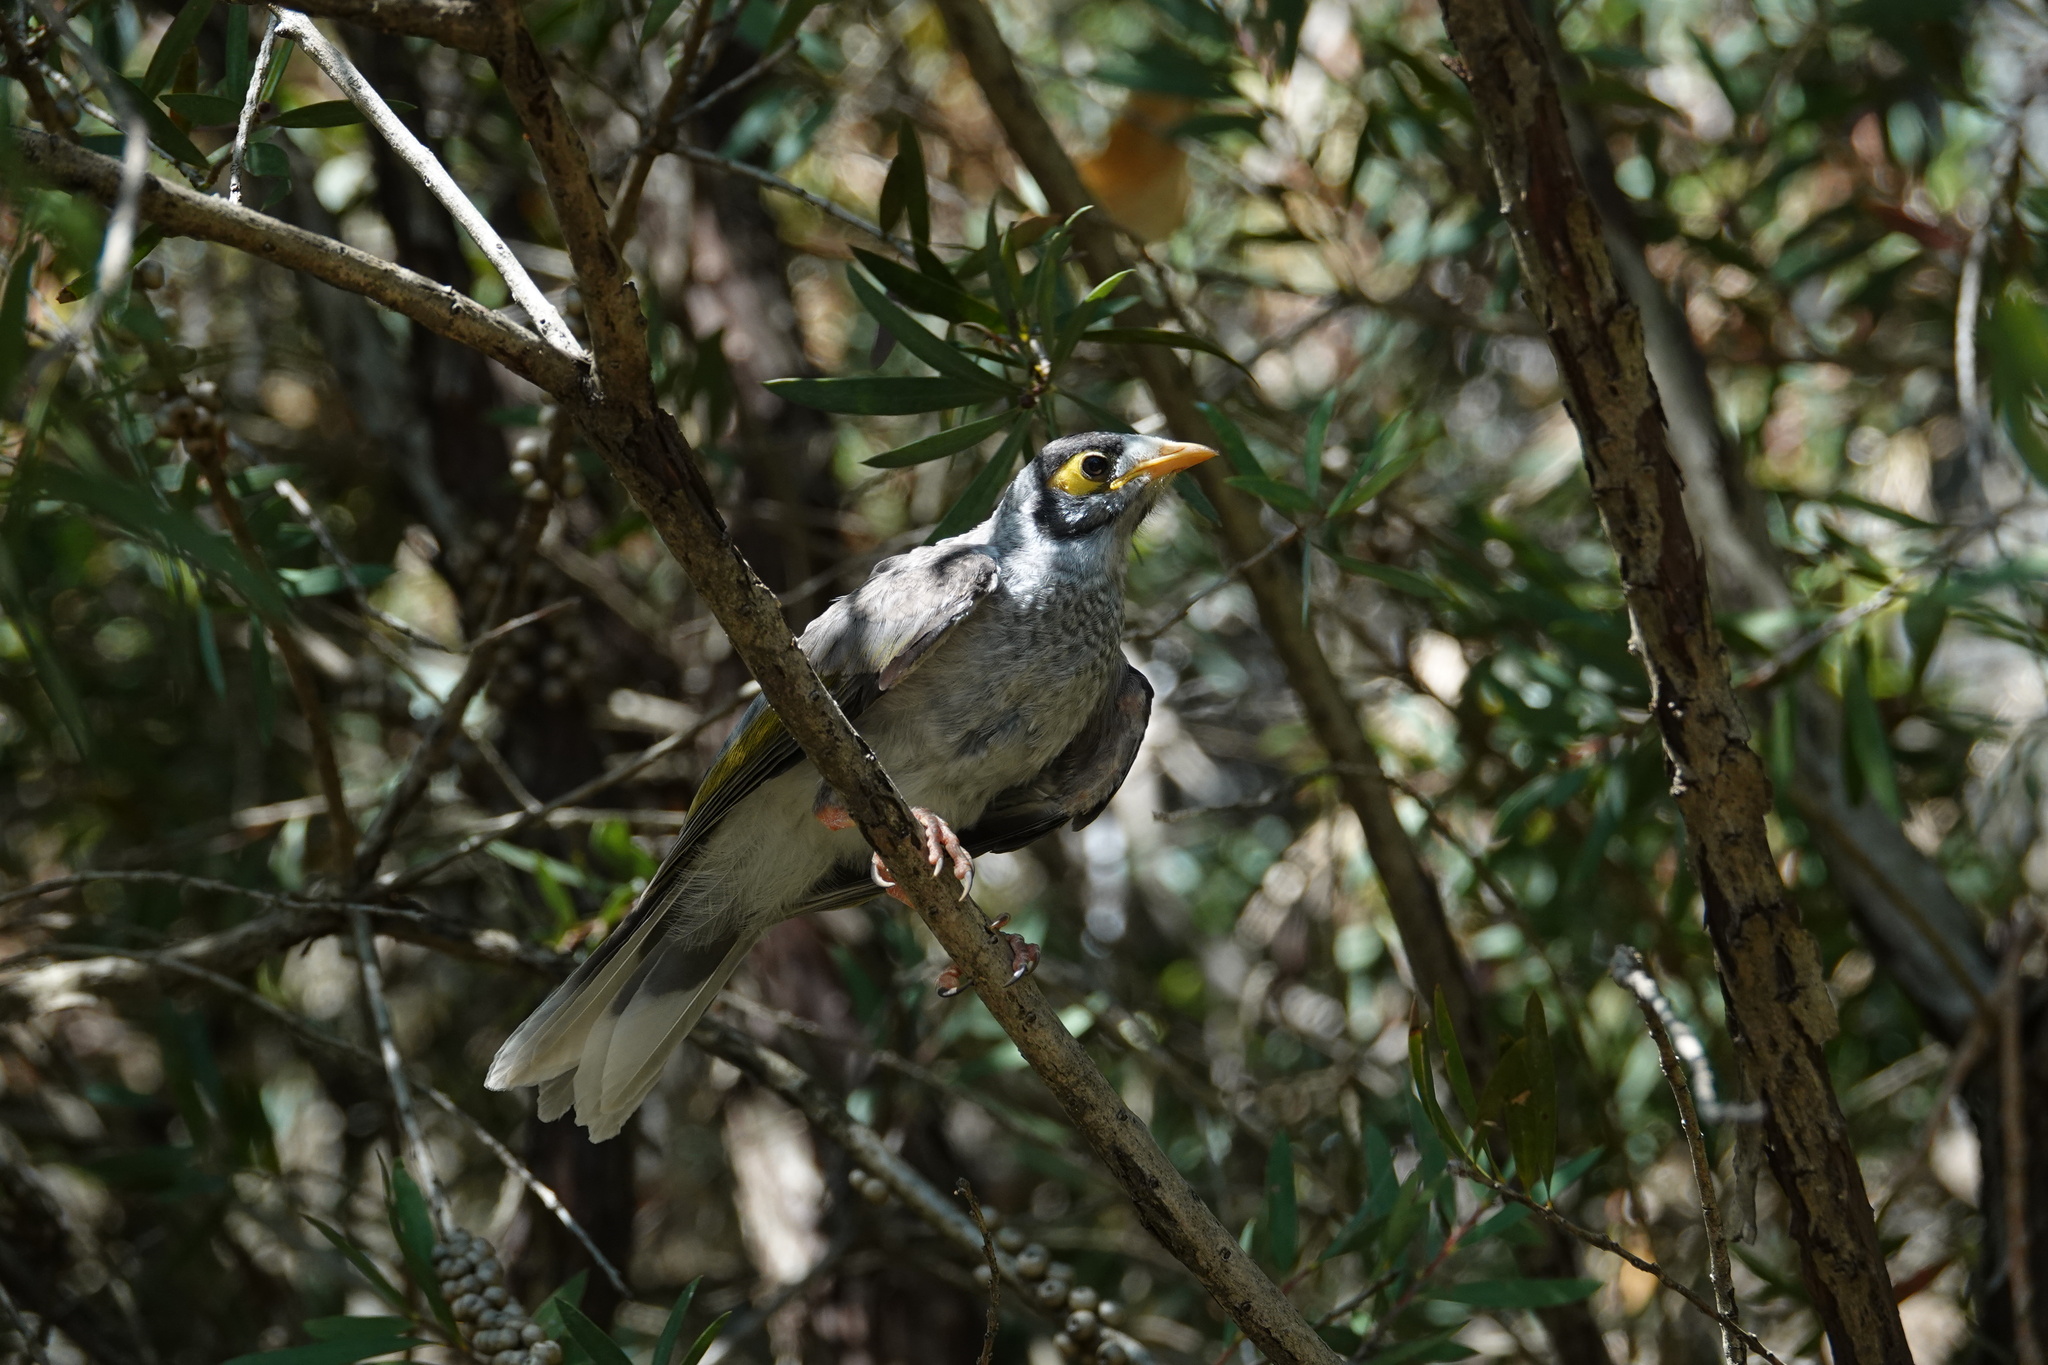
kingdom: Animalia
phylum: Chordata
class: Aves
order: Passeriformes
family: Meliphagidae
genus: Manorina
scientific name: Manorina melanocephala
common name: Noisy miner
